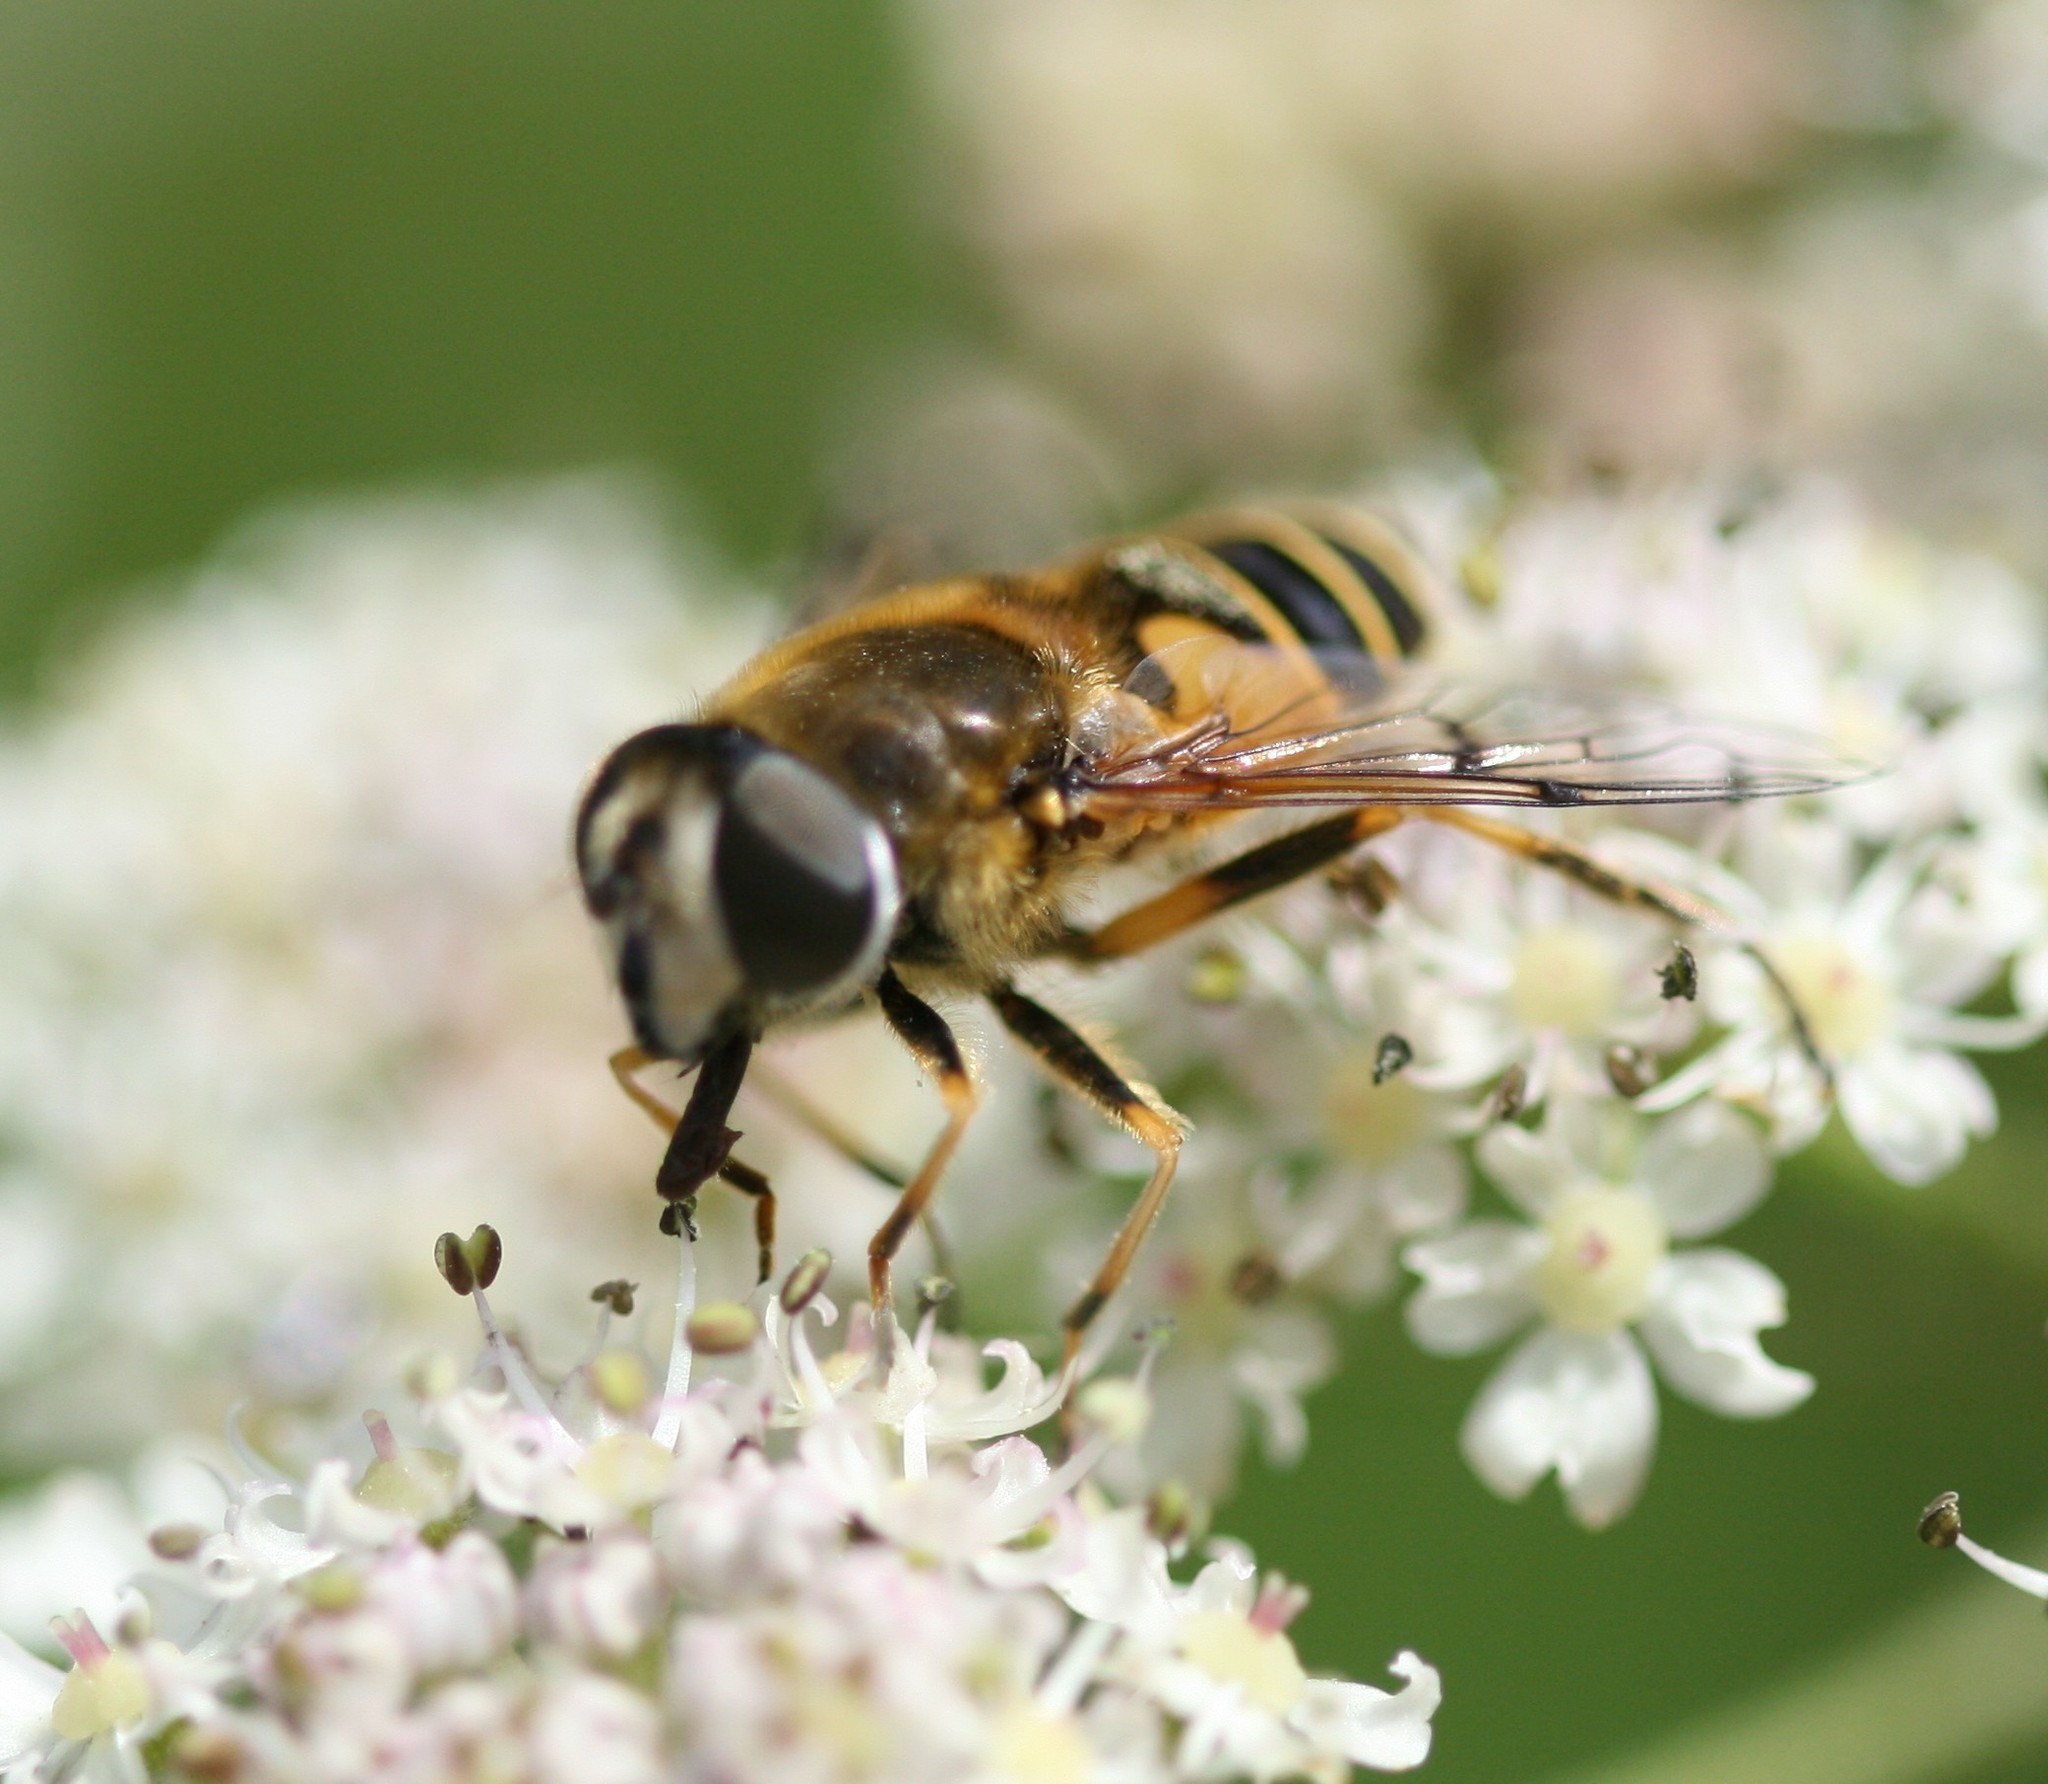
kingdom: Animalia
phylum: Arthropoda
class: Insecta
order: Diptera
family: Syrphidae
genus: Cheilosia
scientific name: Cheilosia morio
